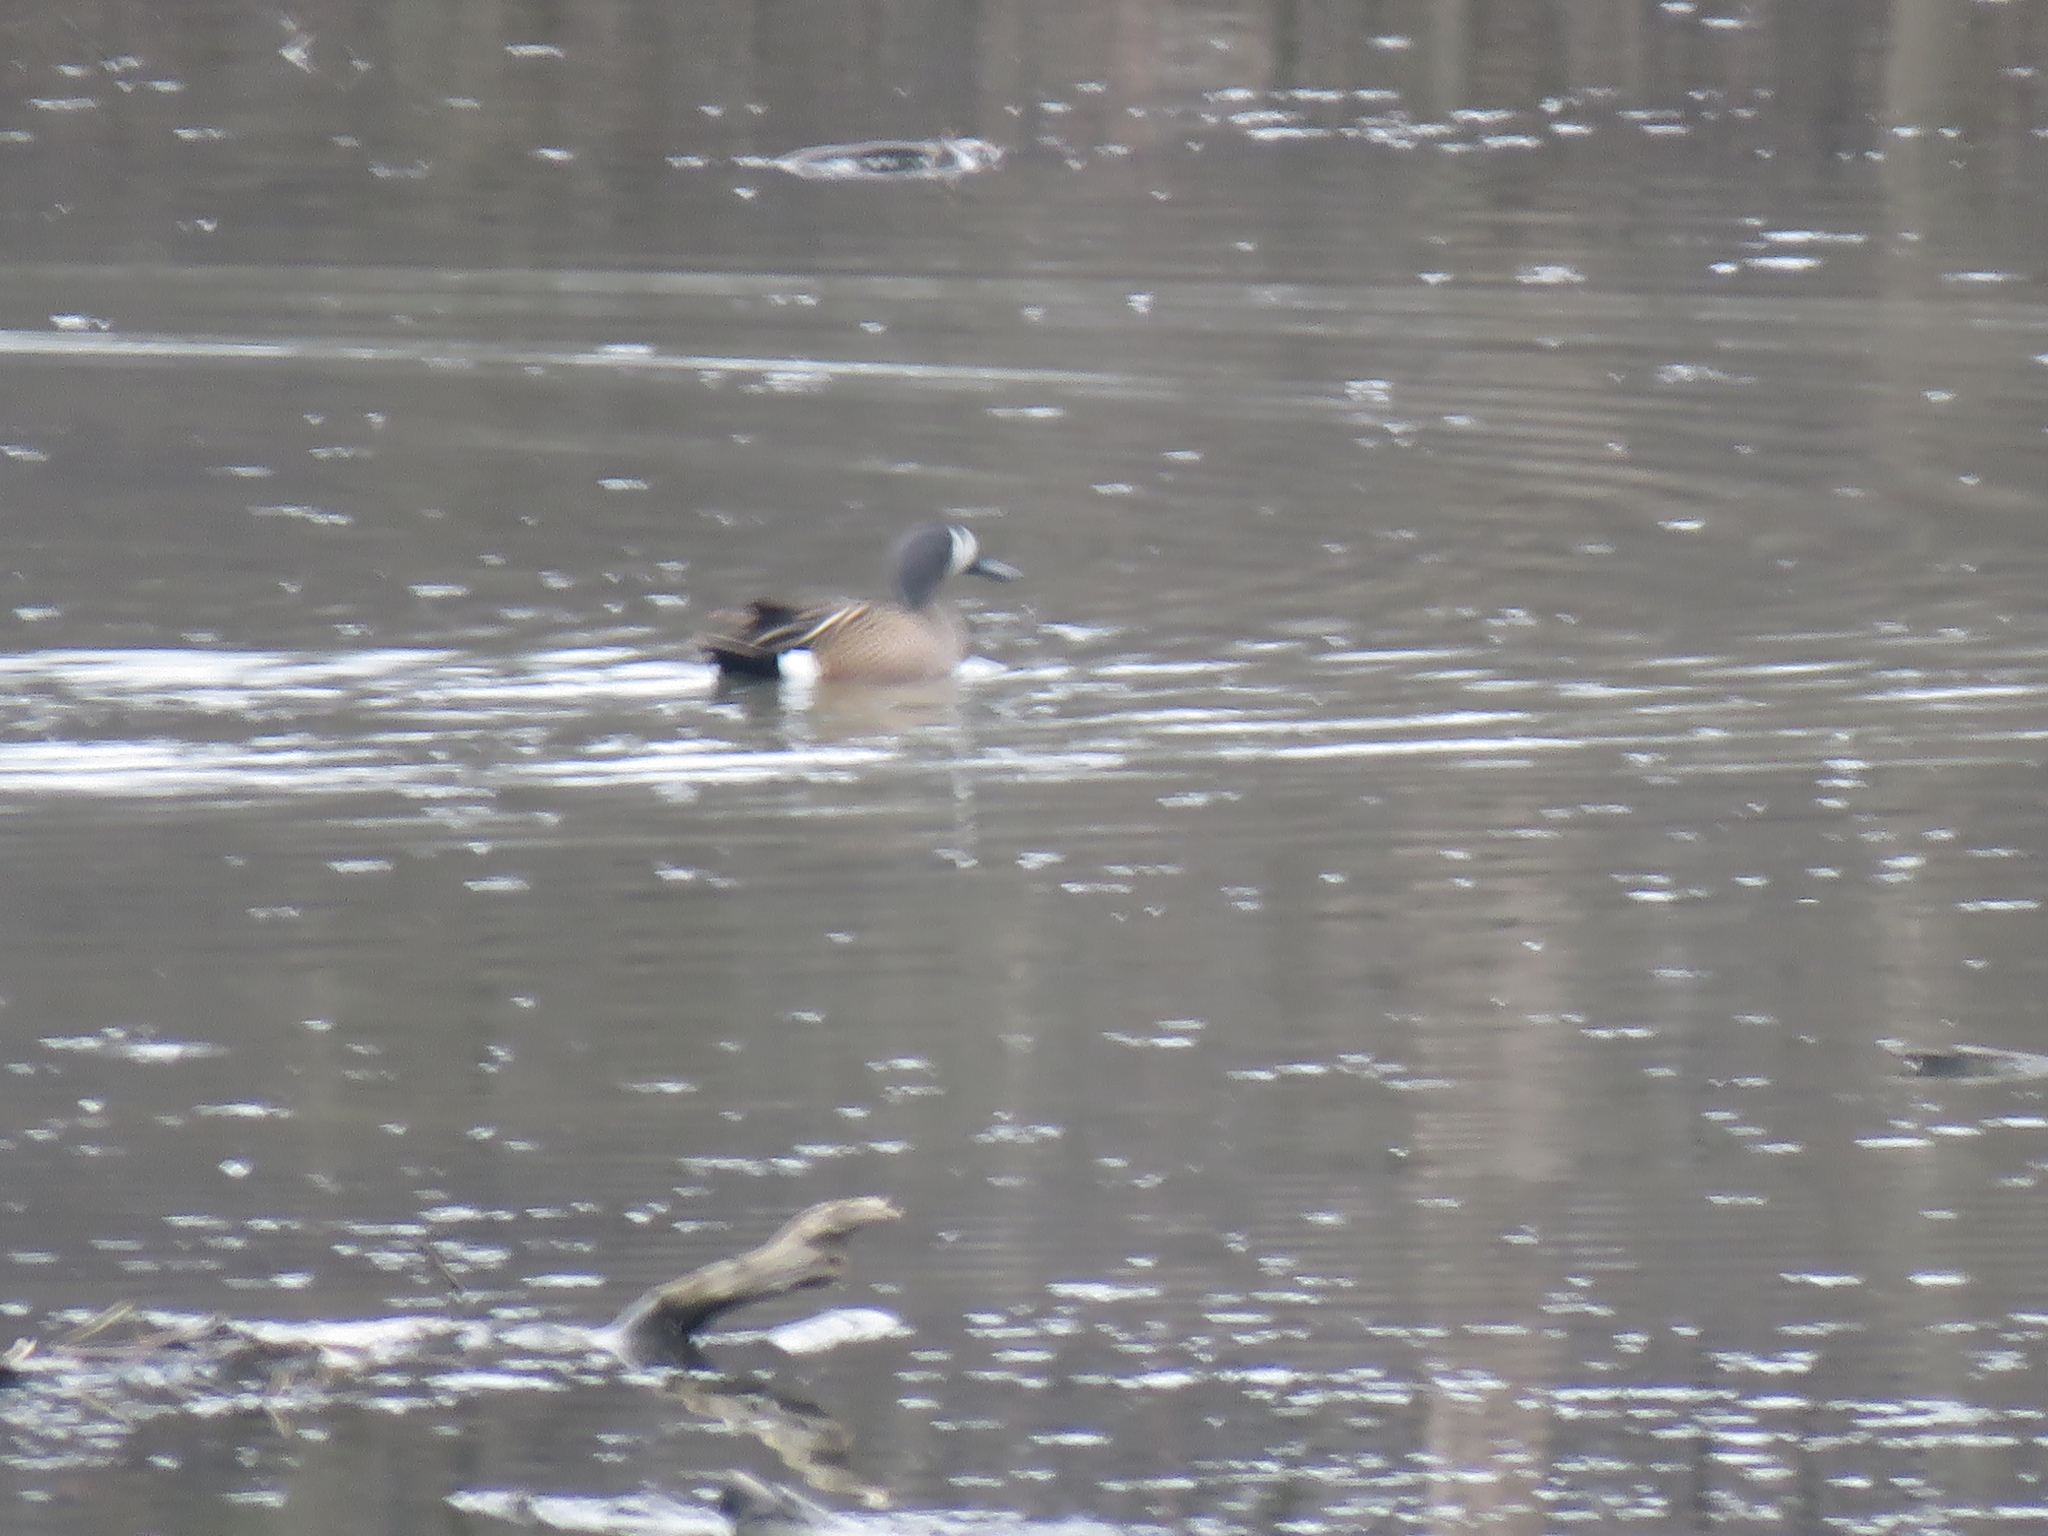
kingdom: Animalia
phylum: Chordata
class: Aves
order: Anseriformes
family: Anatidae
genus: Spatula
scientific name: Spatula discors
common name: Blue-winged teal
